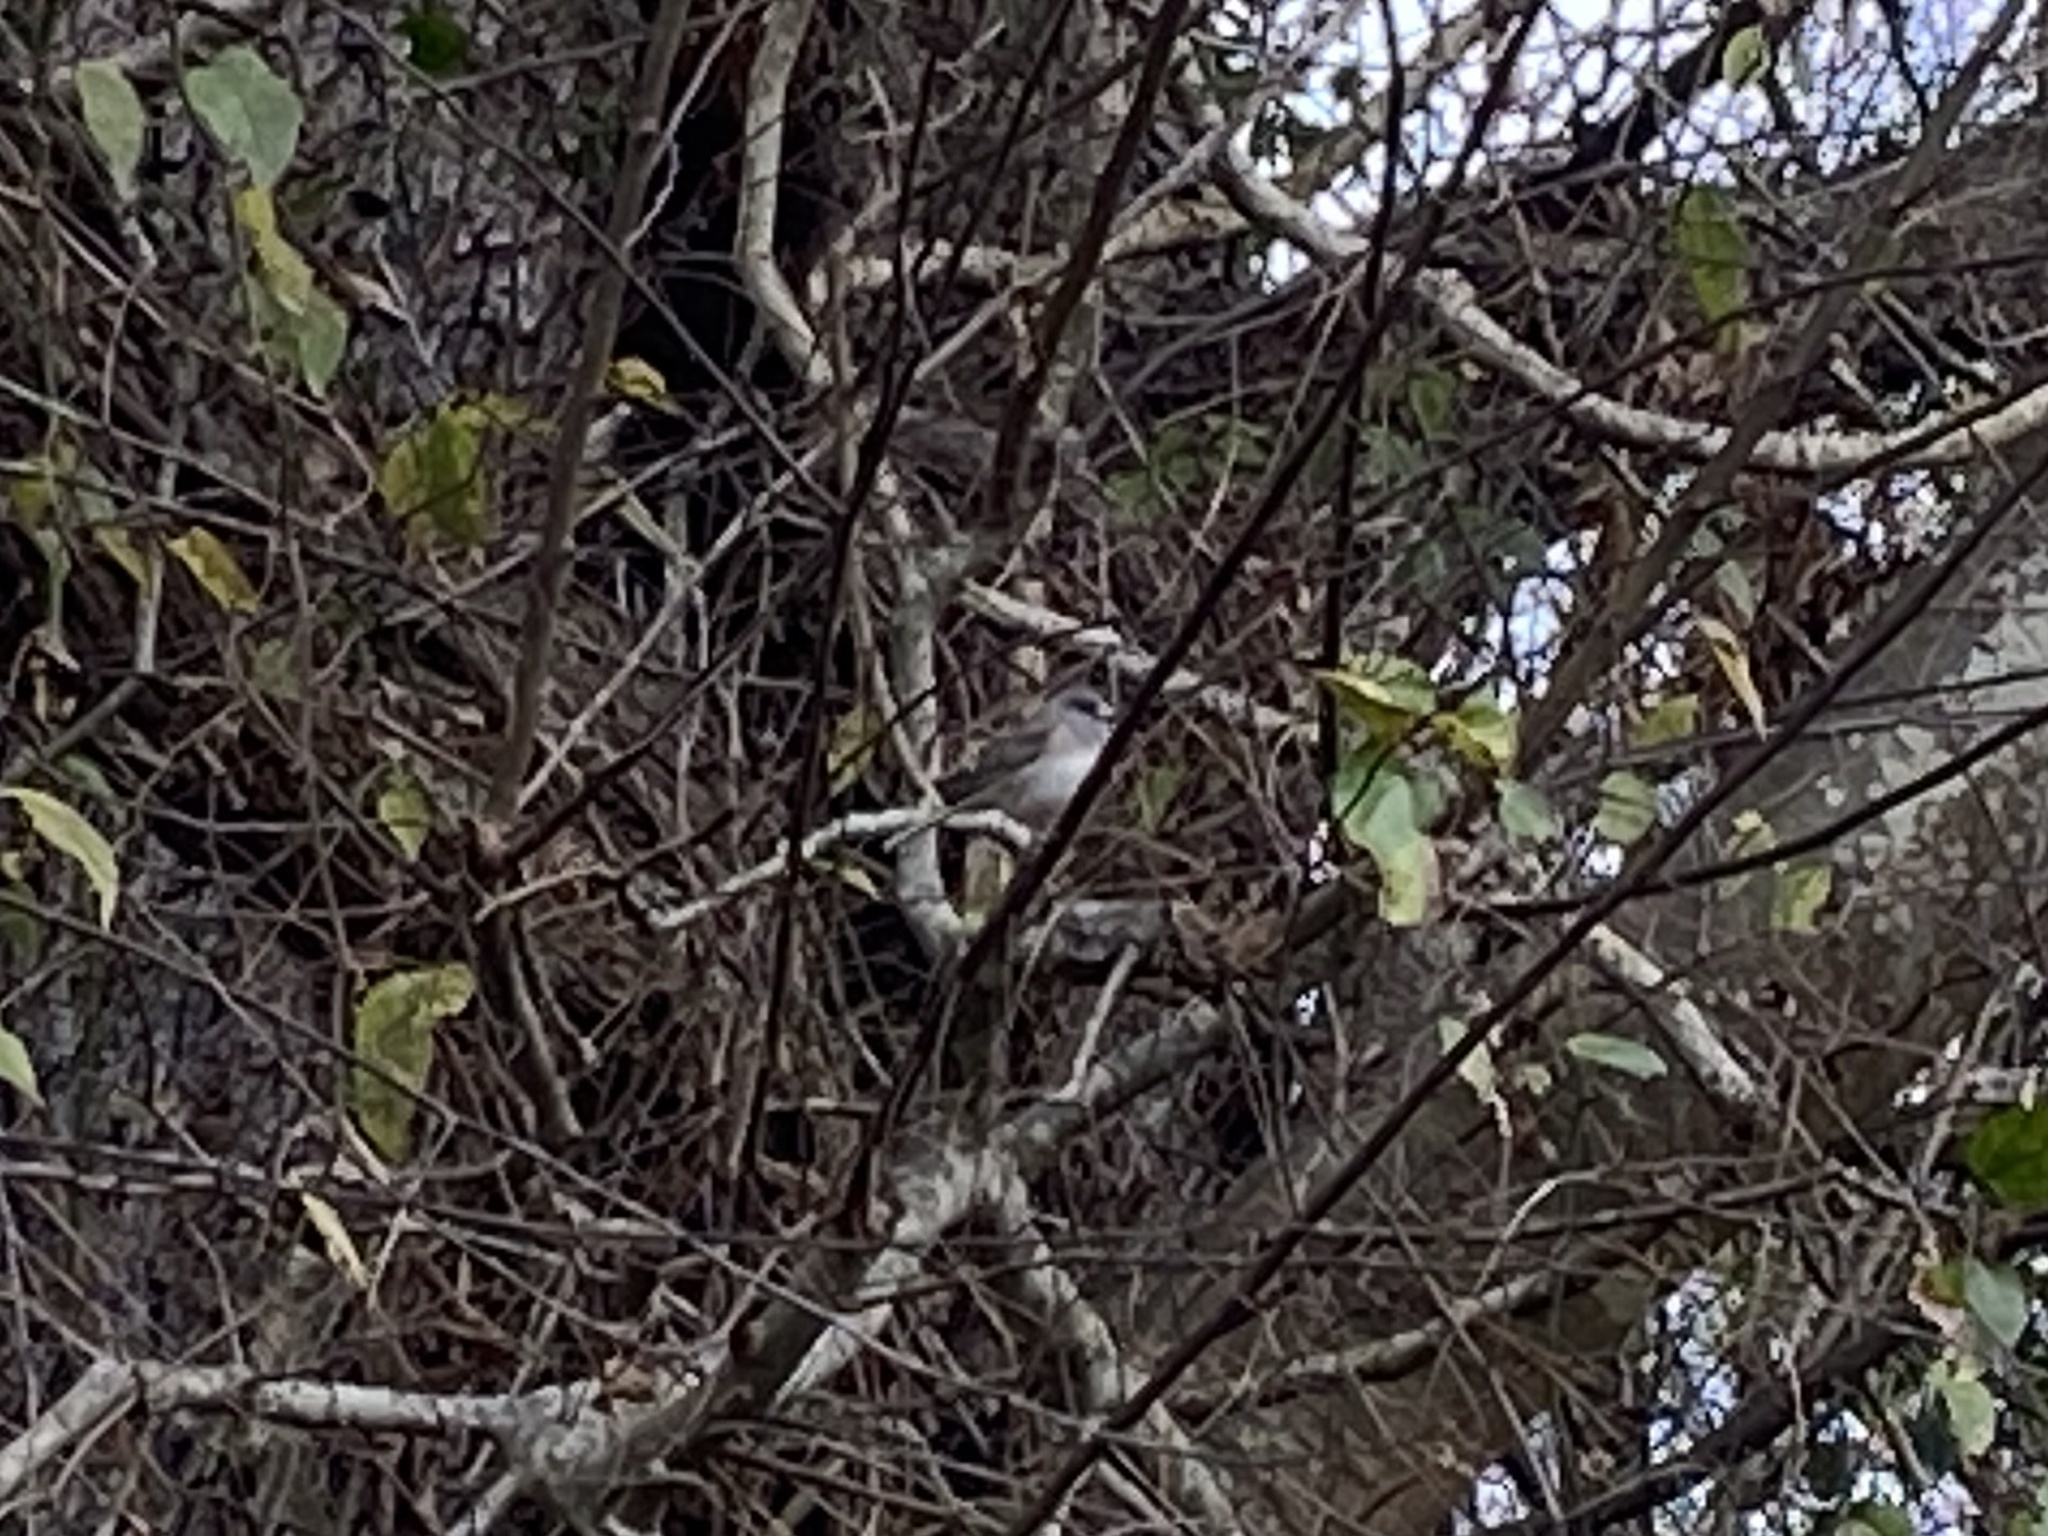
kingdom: Animalia
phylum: Chordata
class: Aves
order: Passeriformes
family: Passerellidae
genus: Junco
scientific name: Junco hyemalis
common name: Dark-eyed junco
